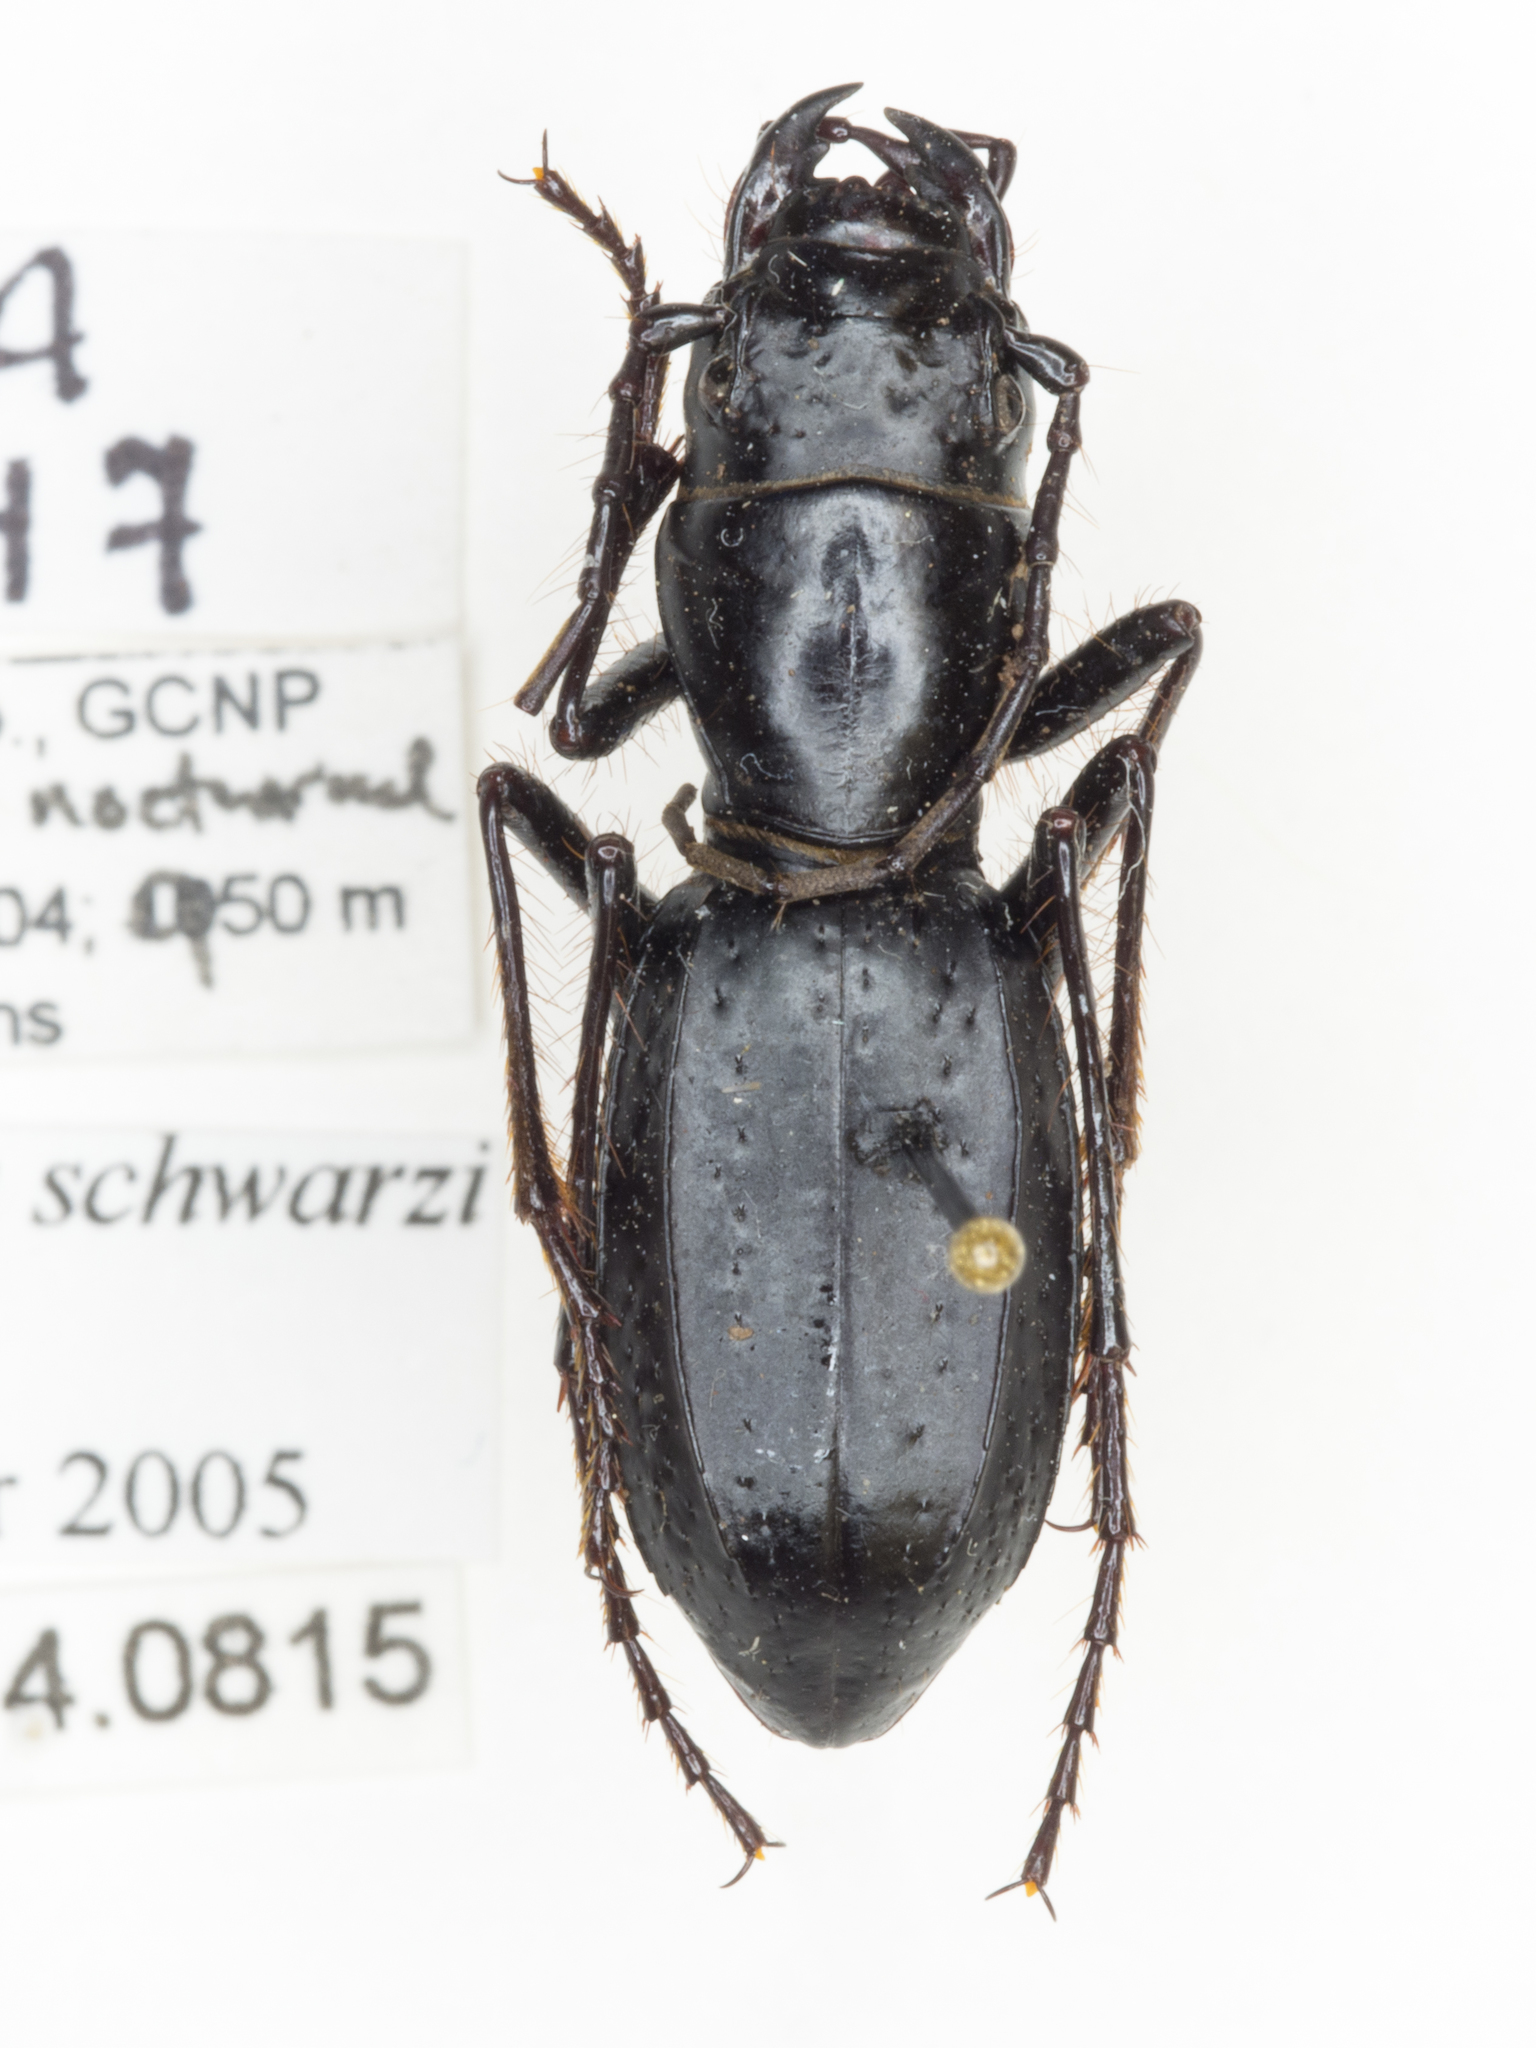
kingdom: Animalia
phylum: Arthropoda
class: Insecta
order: Coleoptera
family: Carabidae
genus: Amblycheila
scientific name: Amblycheila schwarzi
